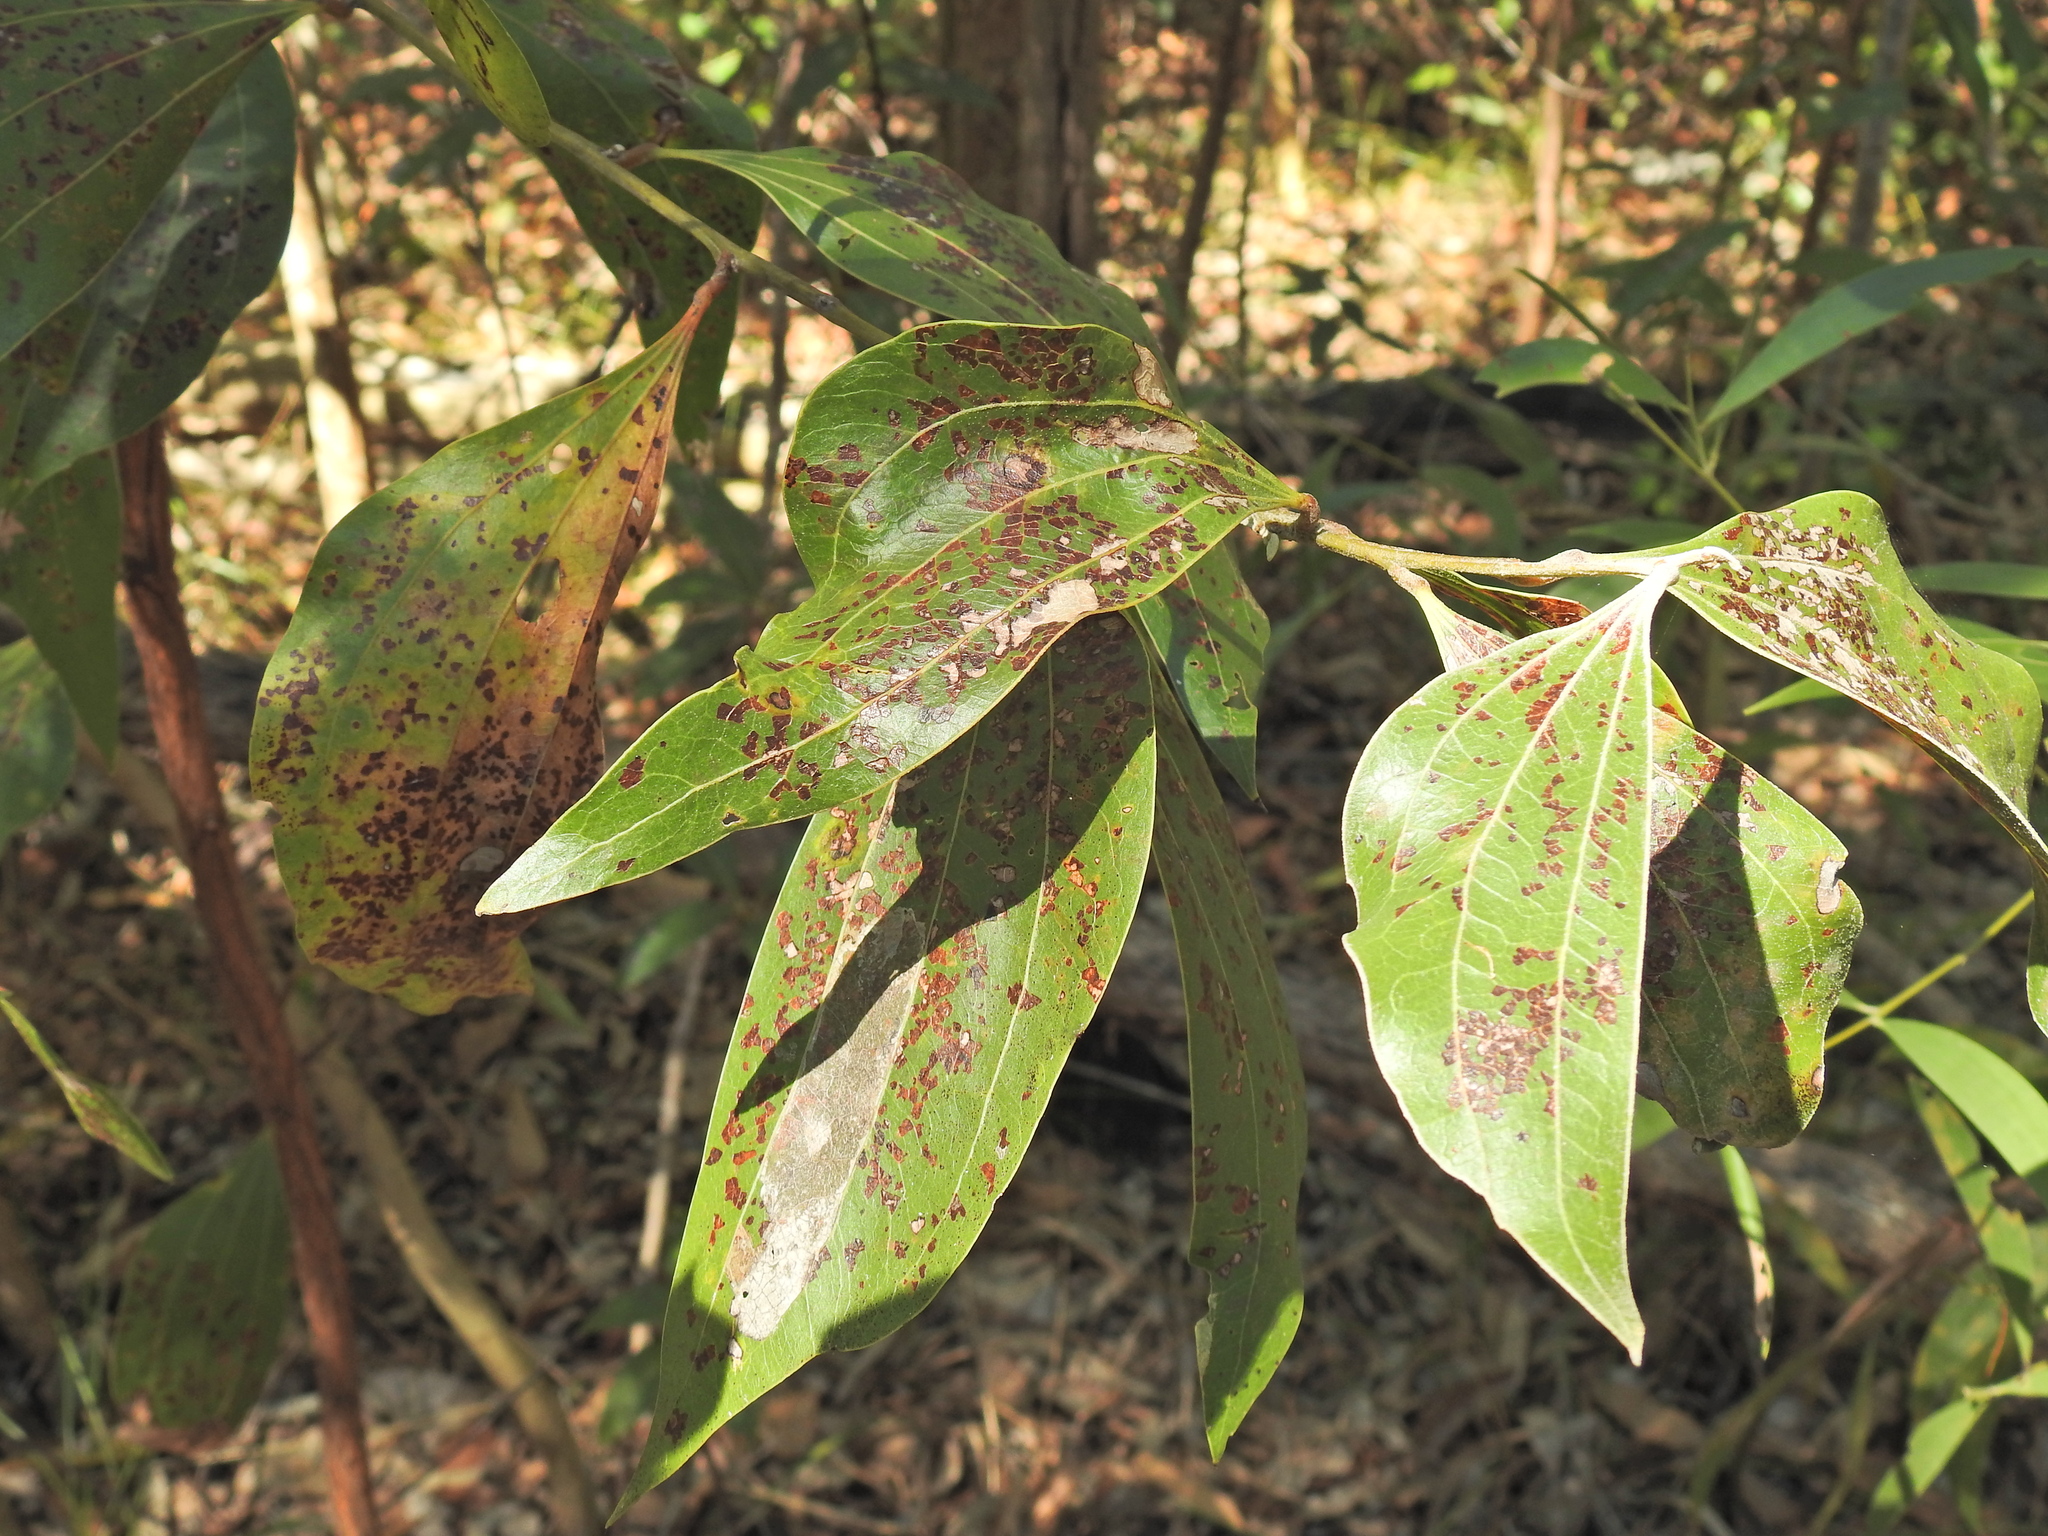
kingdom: Plantae
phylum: Tracheophyta
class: Magnoliopsida
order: Fabales
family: Fabaceae
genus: Acacia
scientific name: Acacia flavescens
